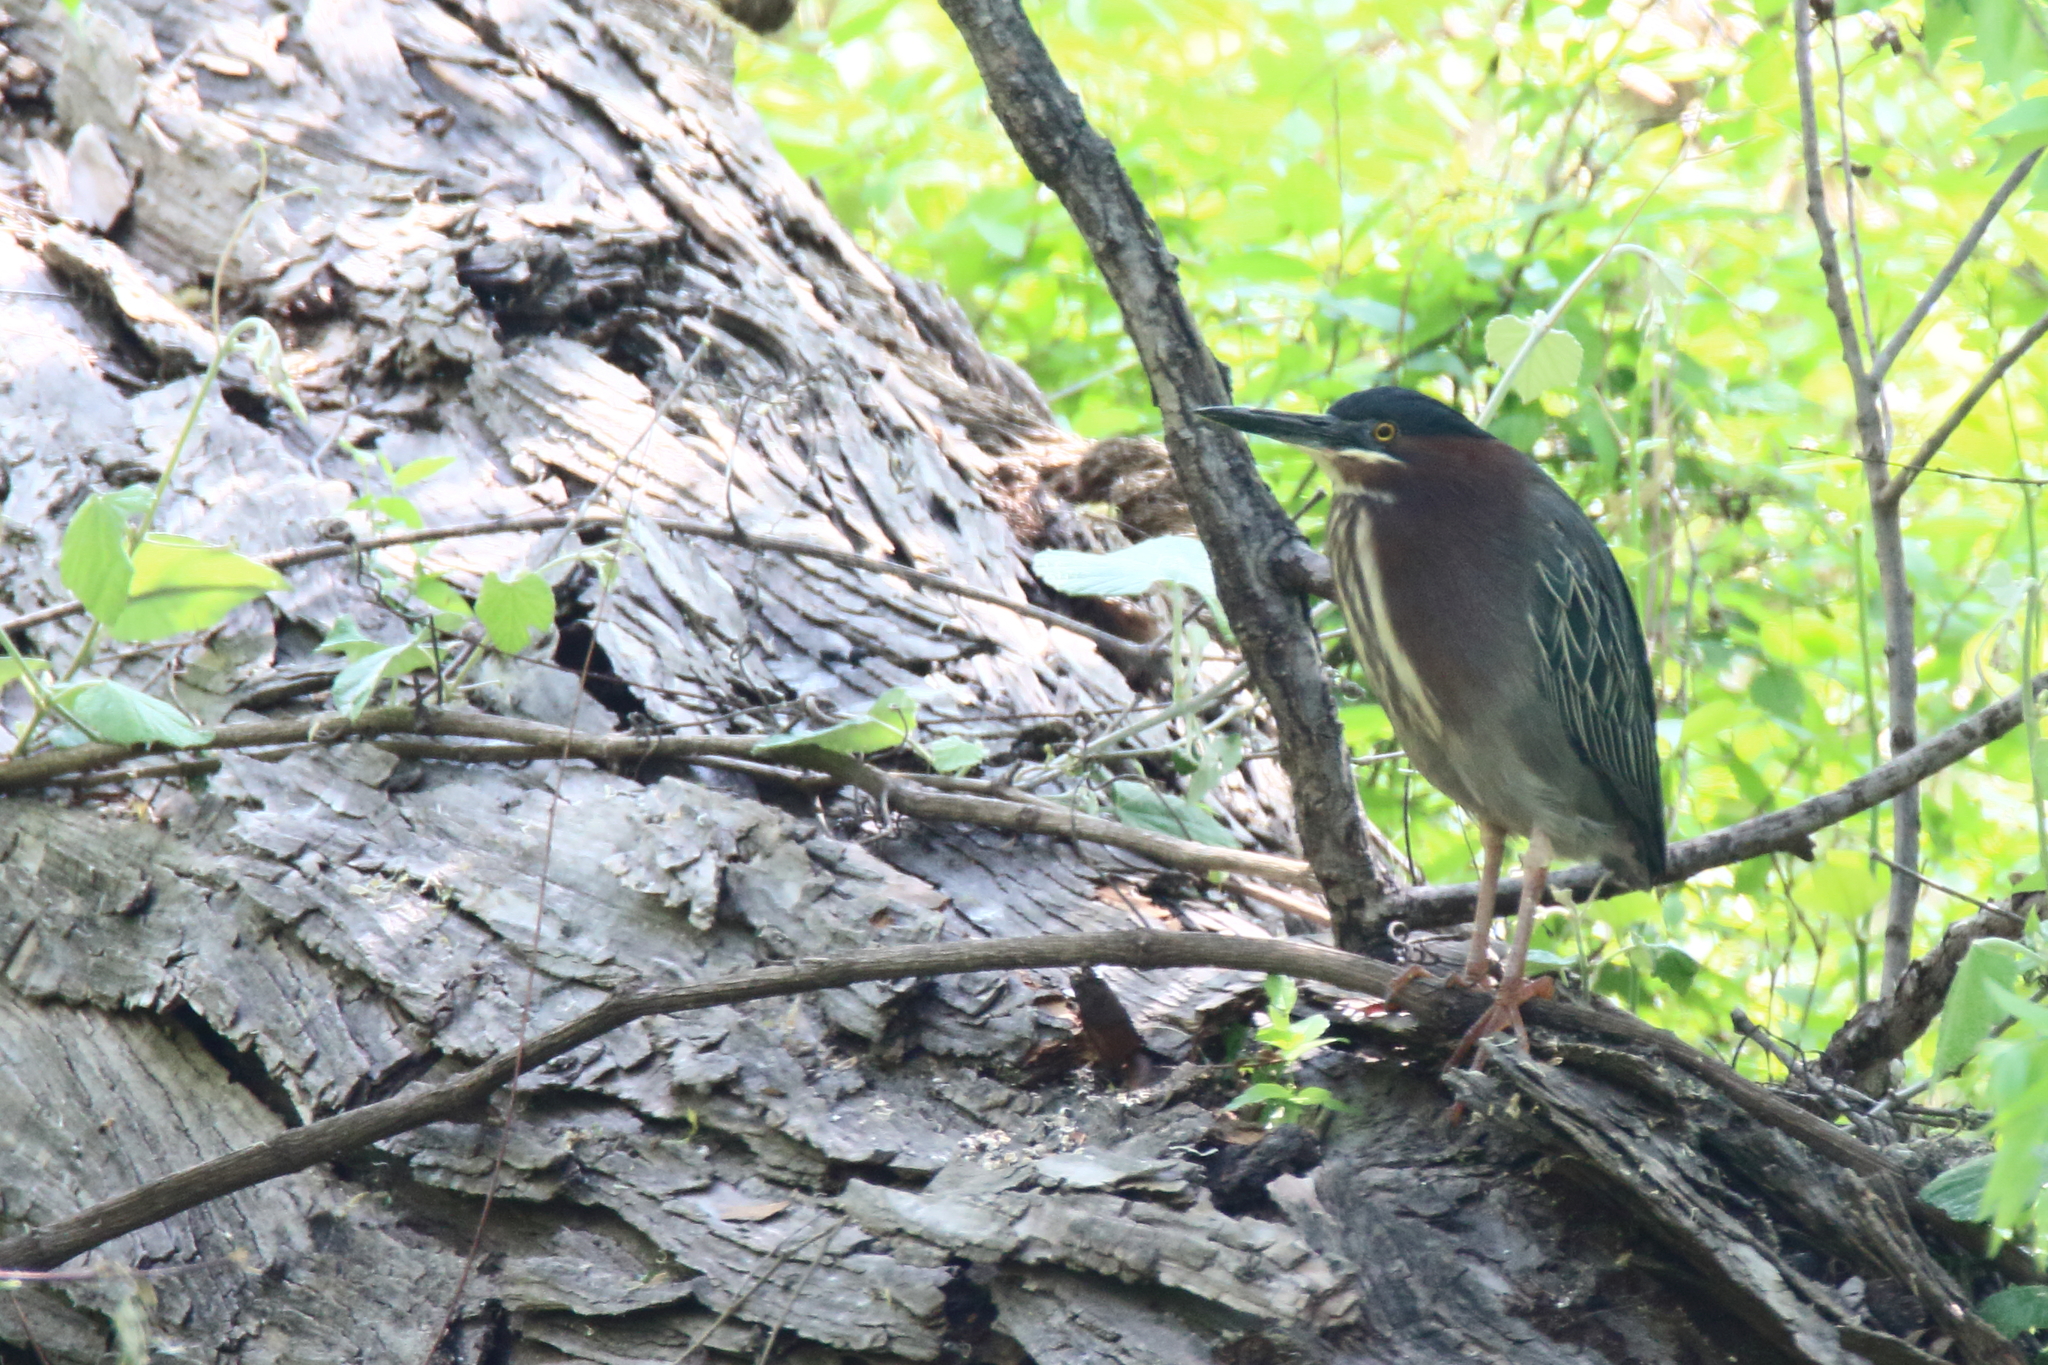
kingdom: Animalia
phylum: Chordata
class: Aves
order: Pelecaniformes
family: Ardeidae
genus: Butorides
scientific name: Butorides virescens
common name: Green heron
